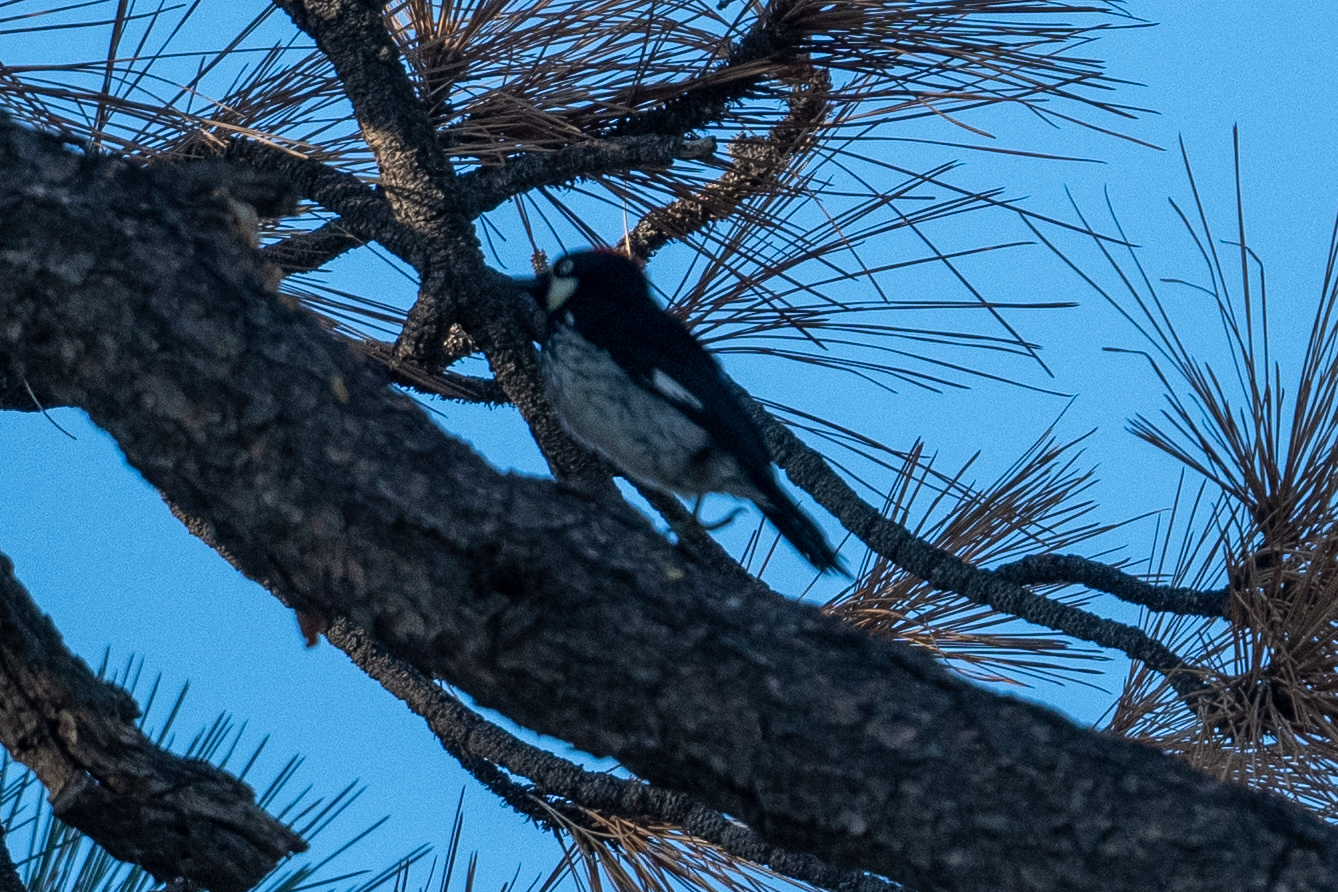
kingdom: Animalia
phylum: Chordata
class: Aves
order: Piciformes
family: Picidae
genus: Melanerpes
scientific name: Melanerpes formicivorus
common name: Acorn woodpecker
